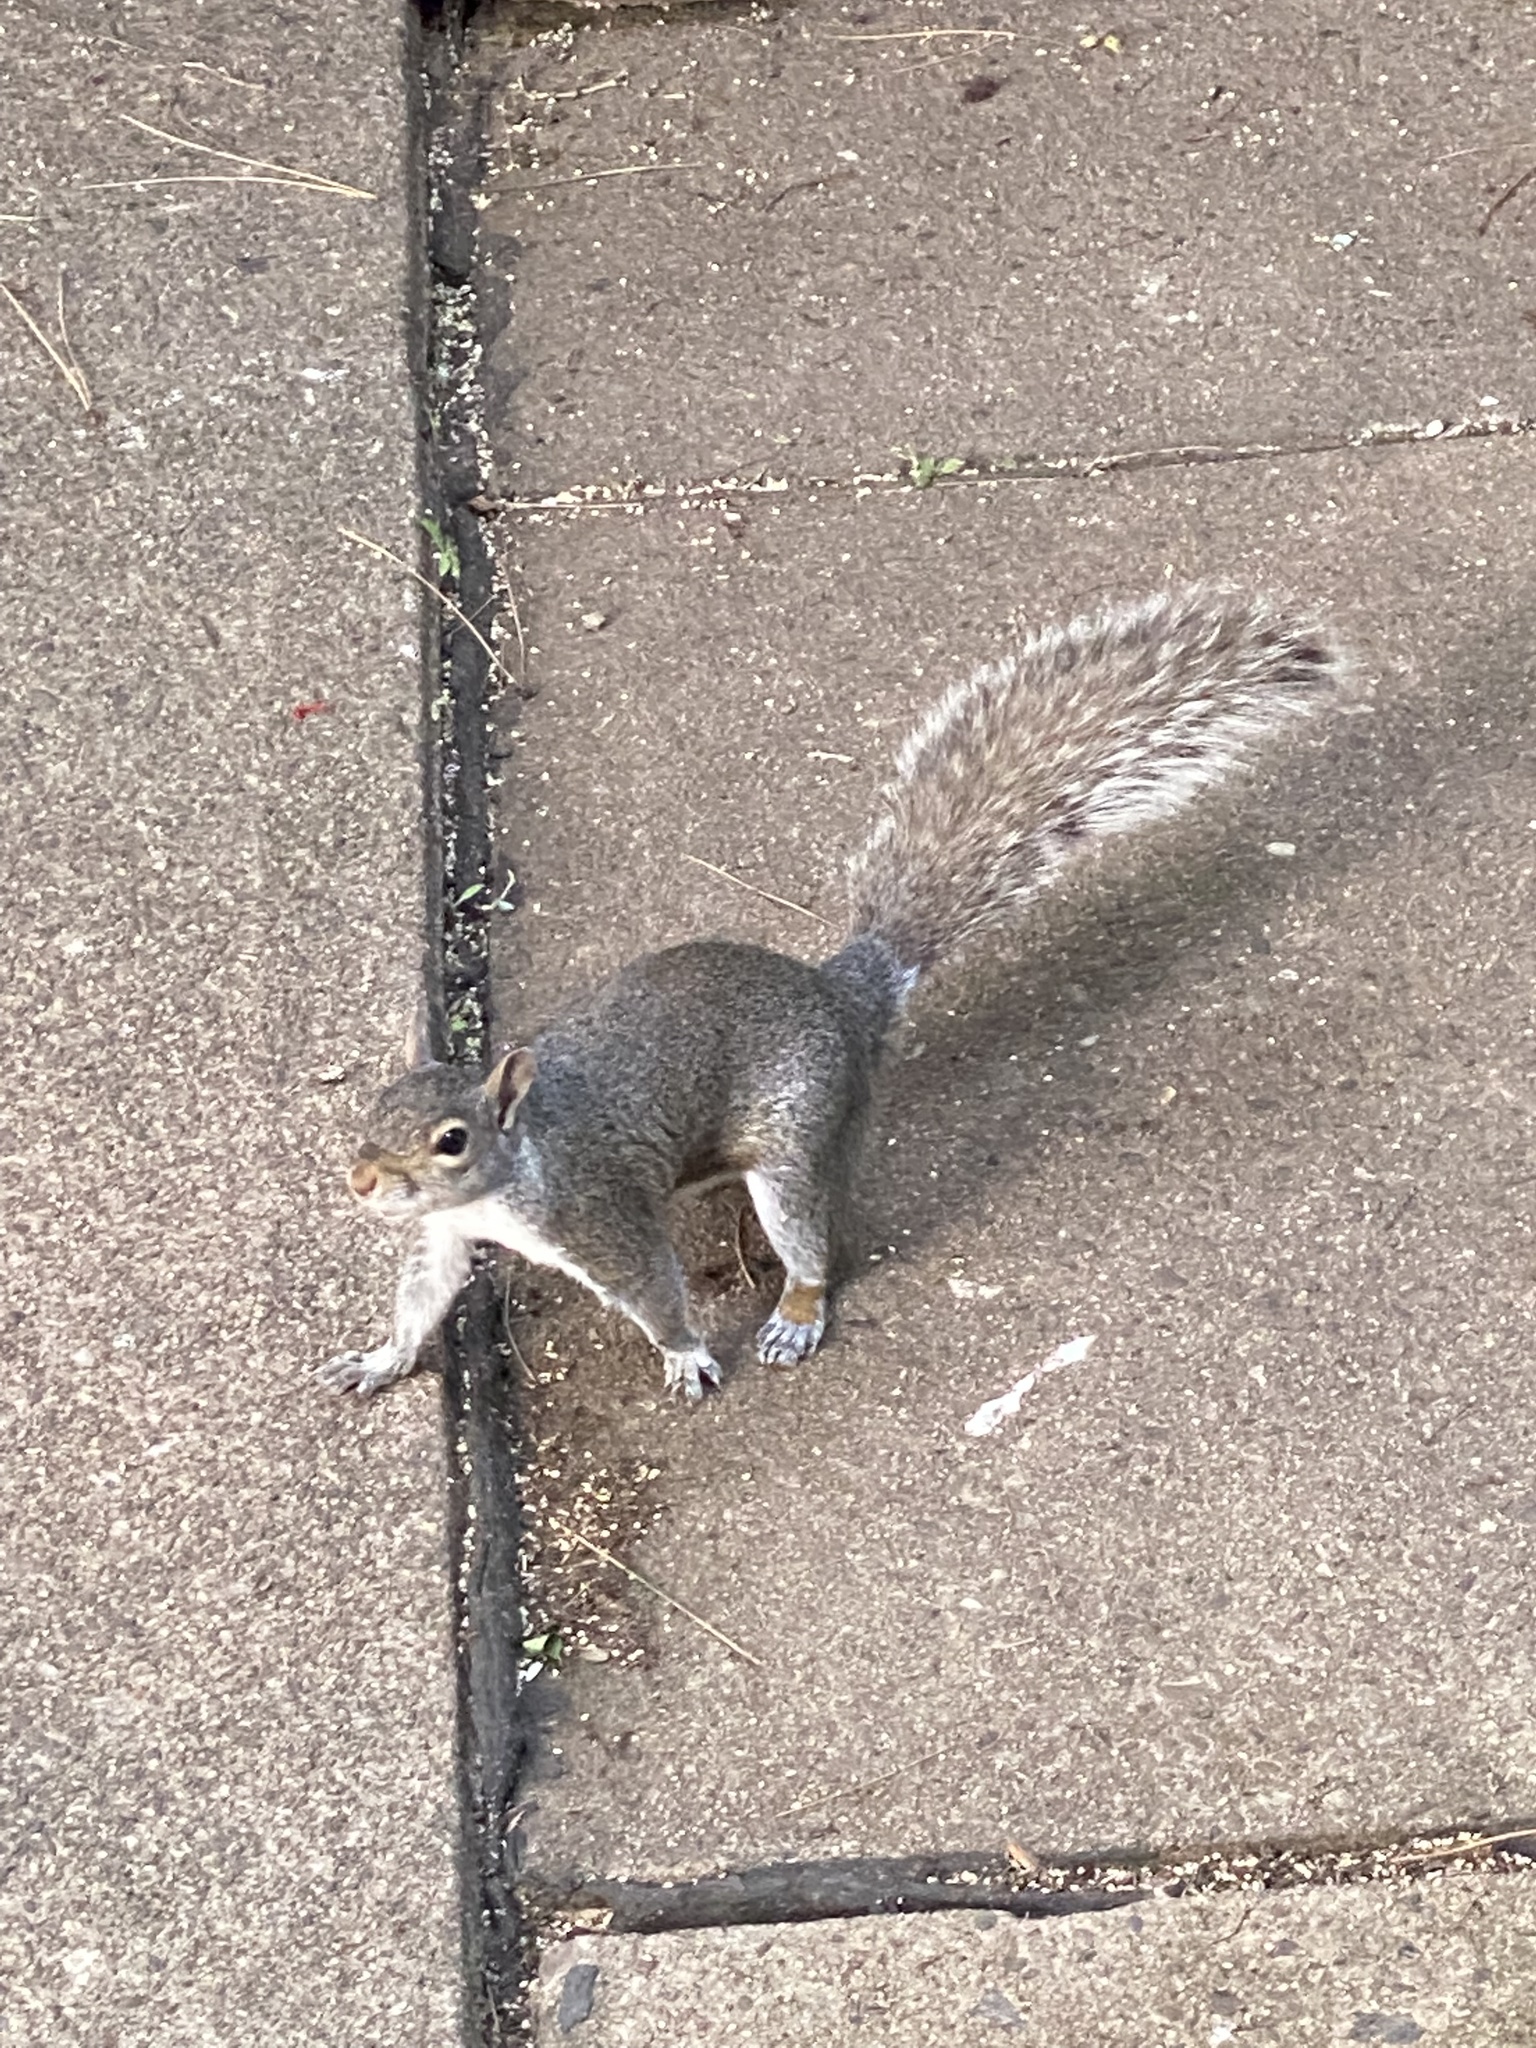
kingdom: Animalia
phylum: Chordata
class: Mammalia
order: Rodentia
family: Sciuridae
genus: Sciurus
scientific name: Sciurus carolinensis
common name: Eastern gray squirrel
